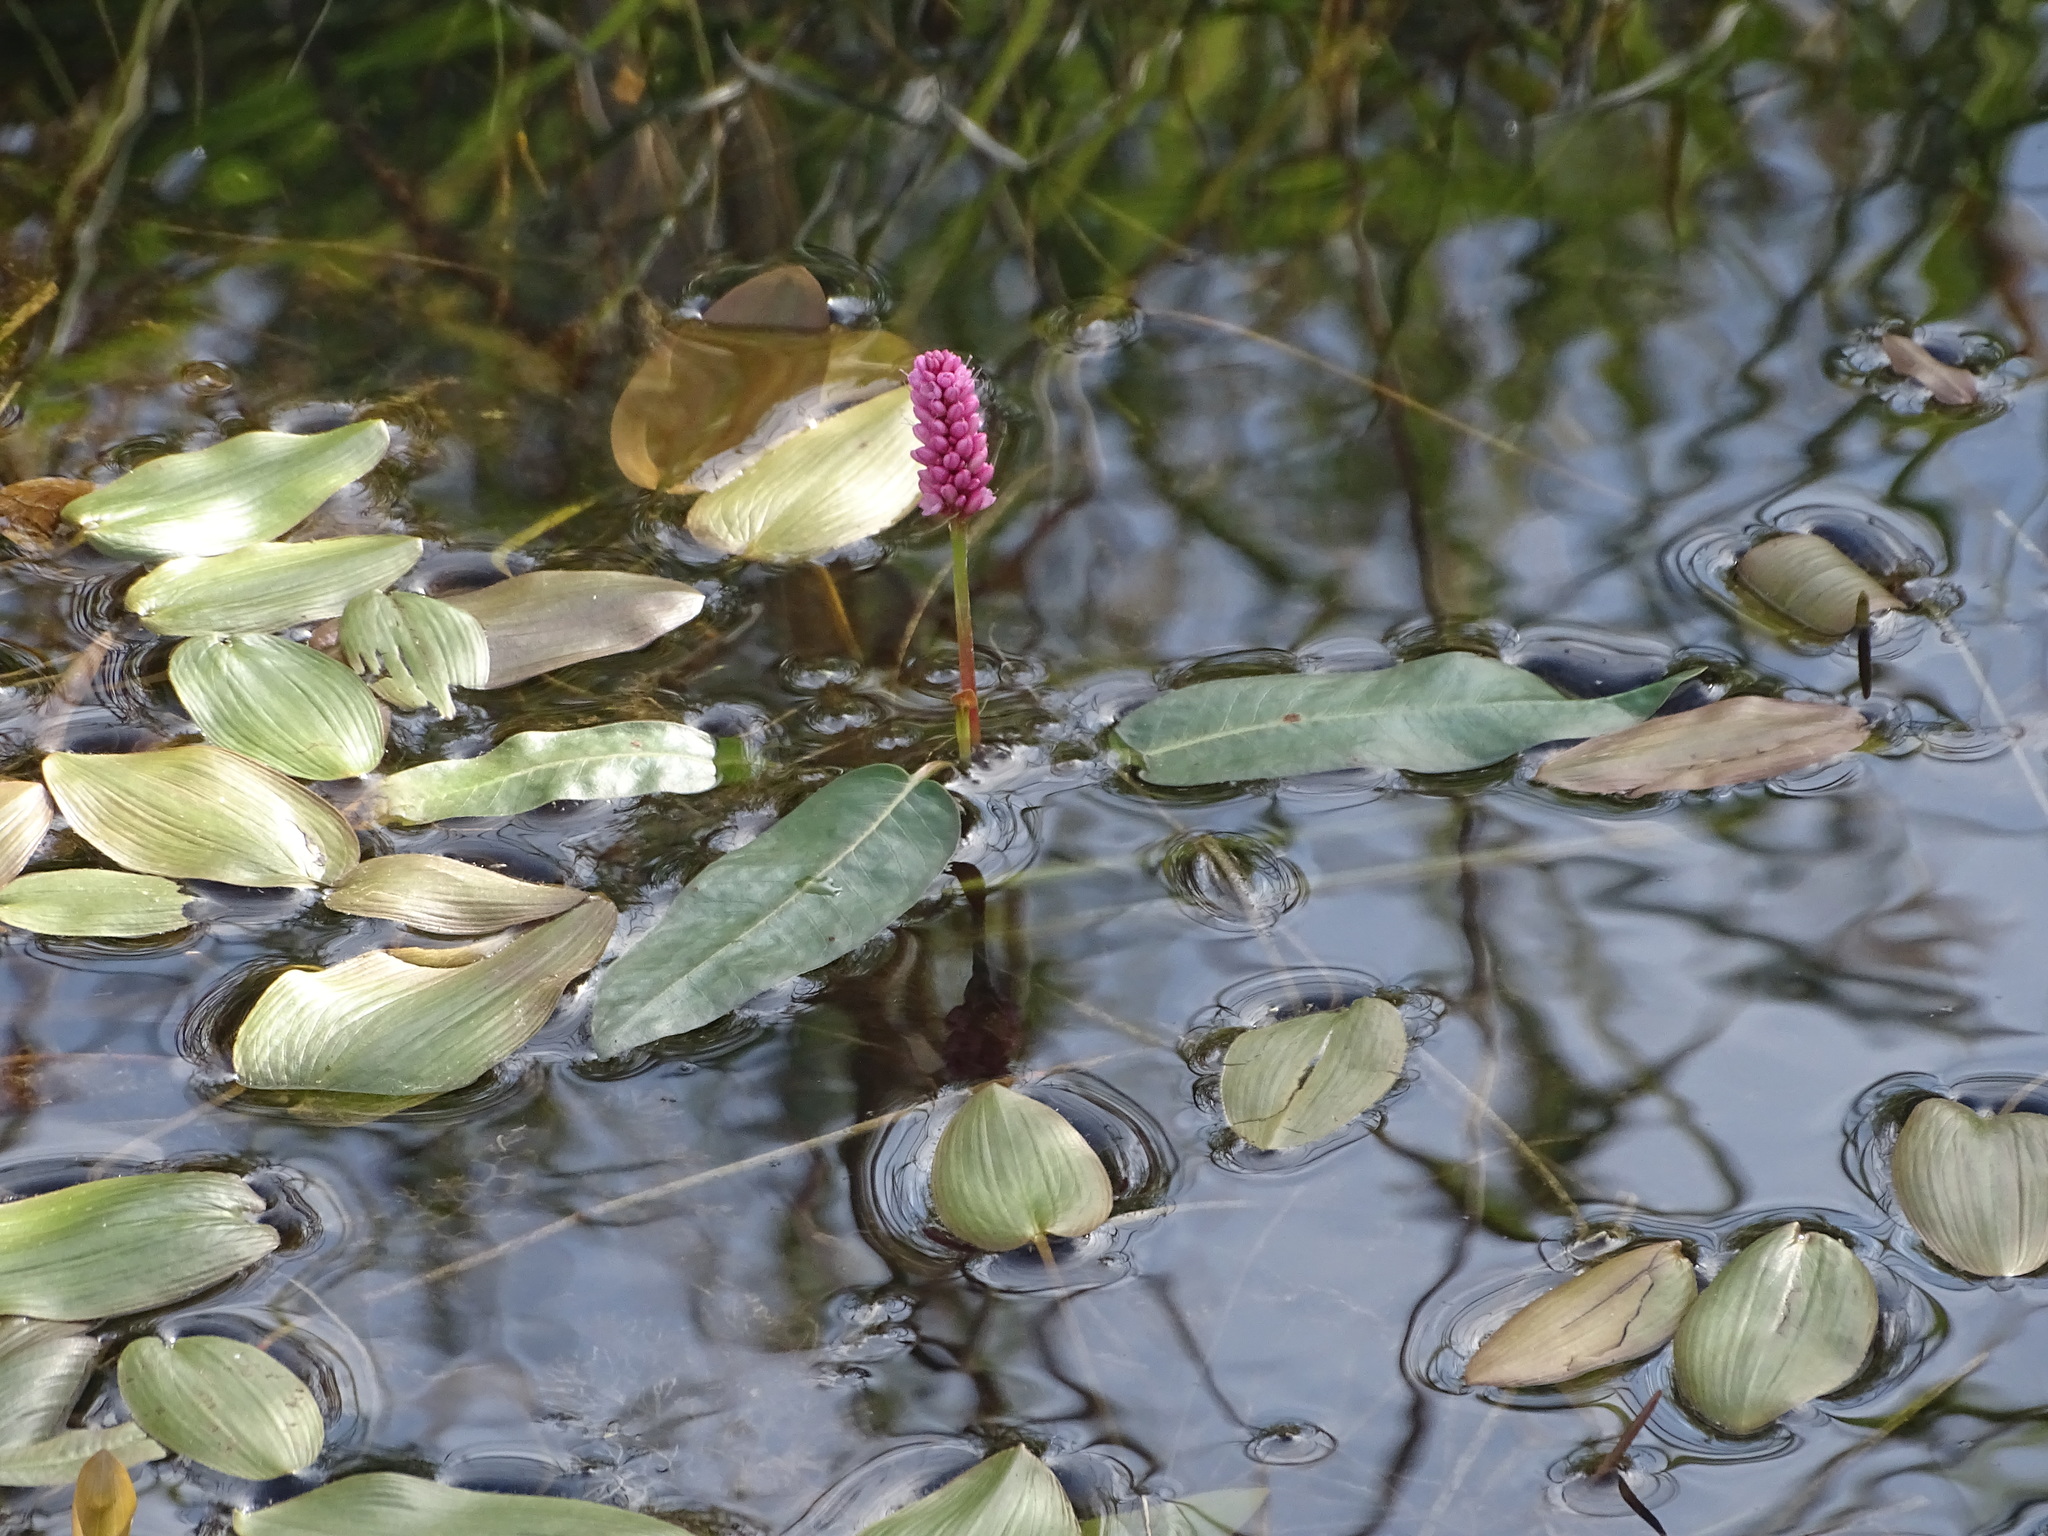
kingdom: Plantae
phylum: Tracheophyta
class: Magnoliopsida
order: Caryophyllales
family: Polygonaceae
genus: Persicaria
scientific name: Persicaria amphibia
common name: Amphibious bistort
